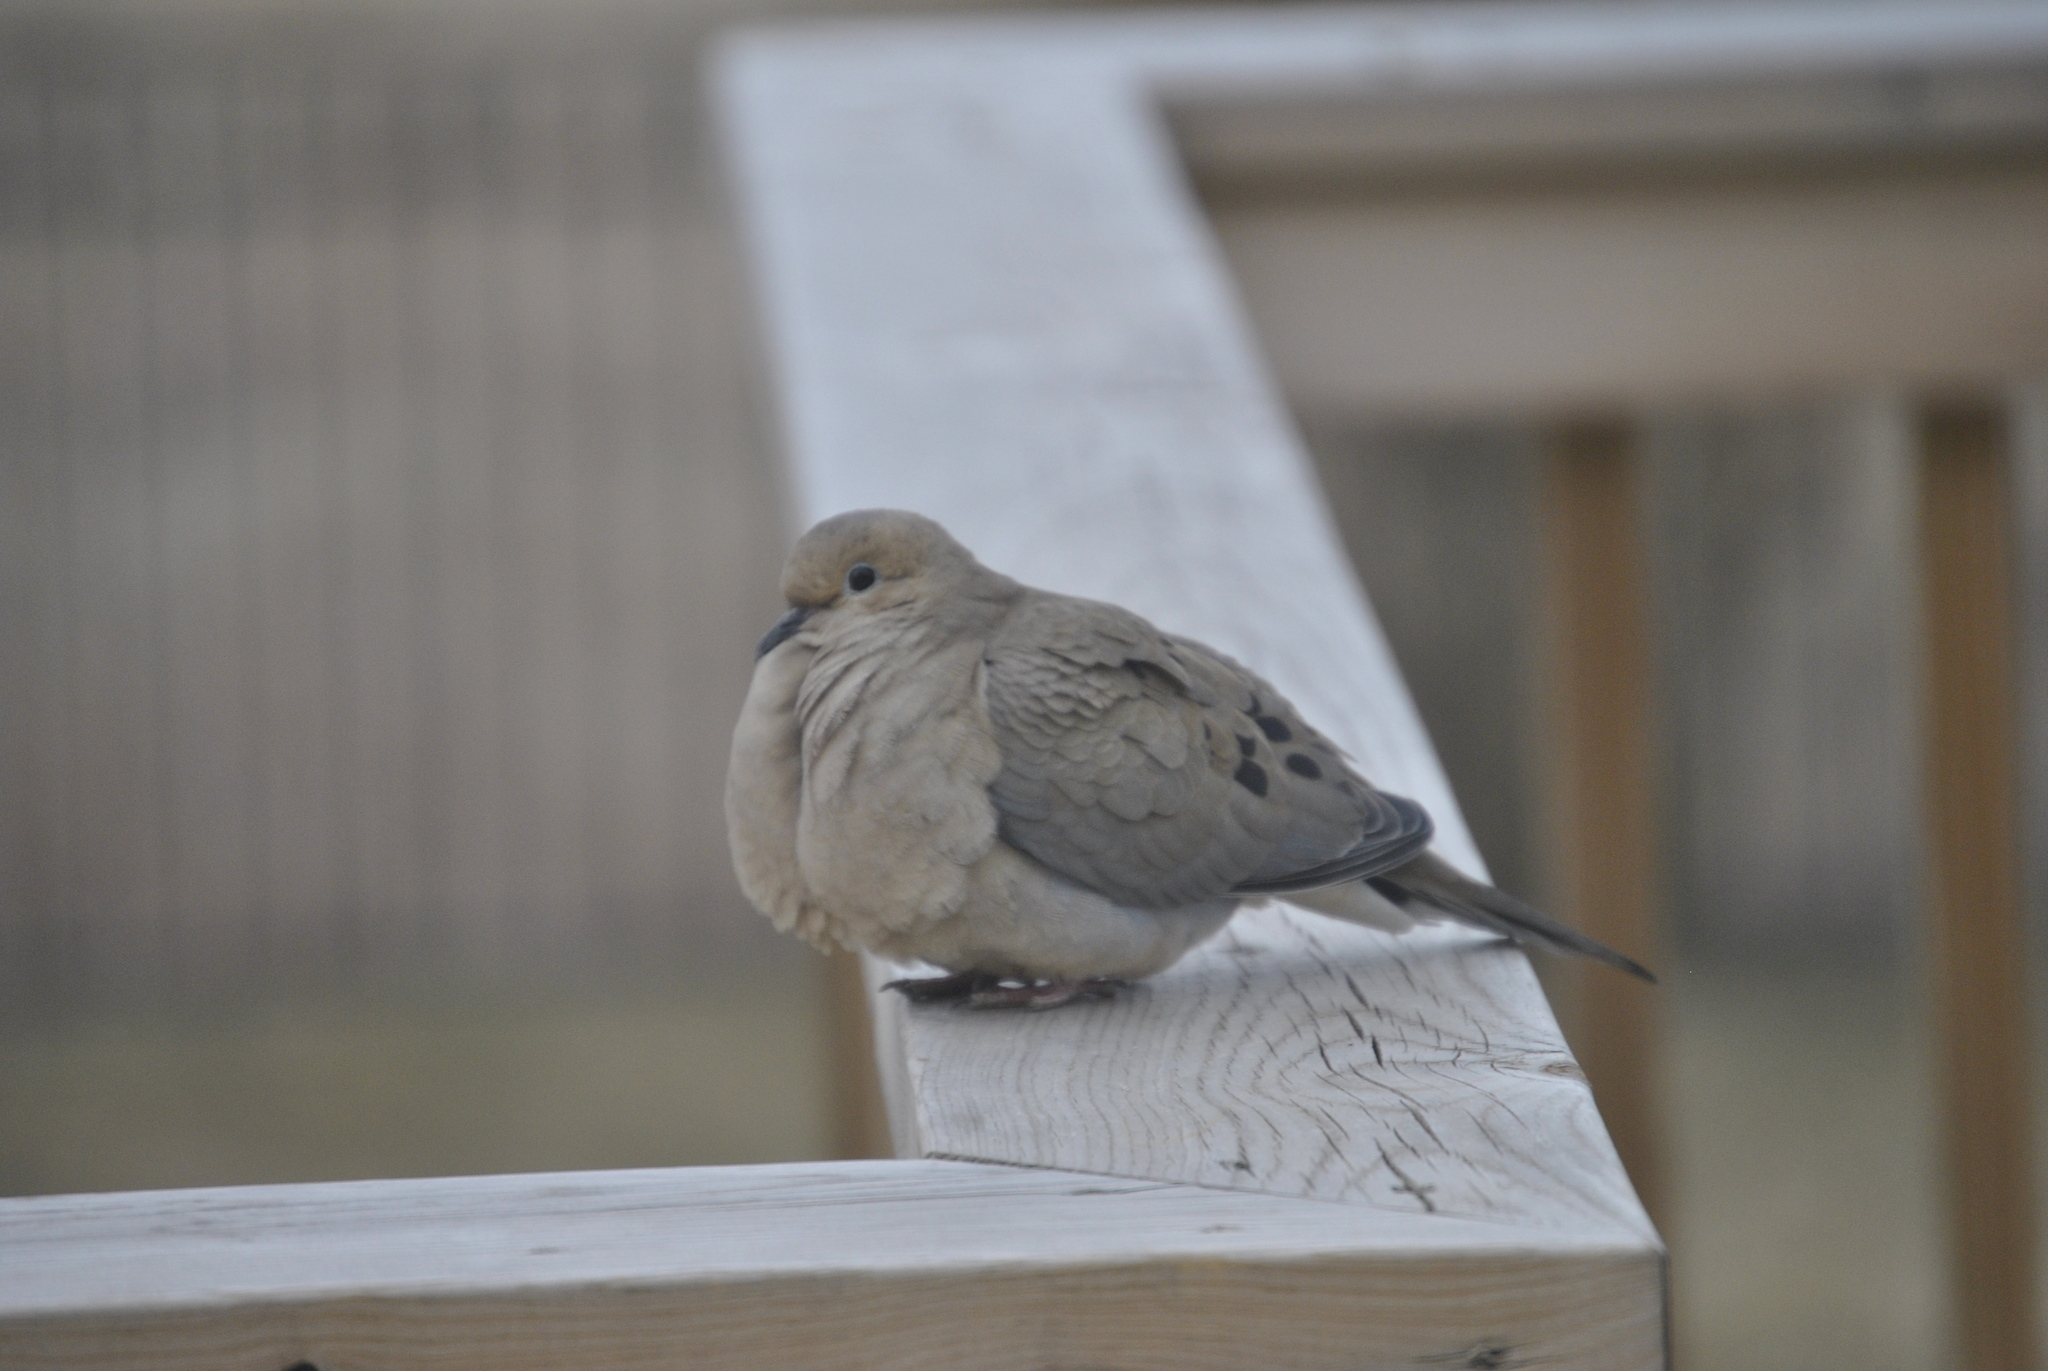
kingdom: Animalia
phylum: Chordata
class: Aves
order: Columbiformes
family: Columbidae
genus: Zenaida
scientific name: Zenaida macroura
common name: Mourning dove
